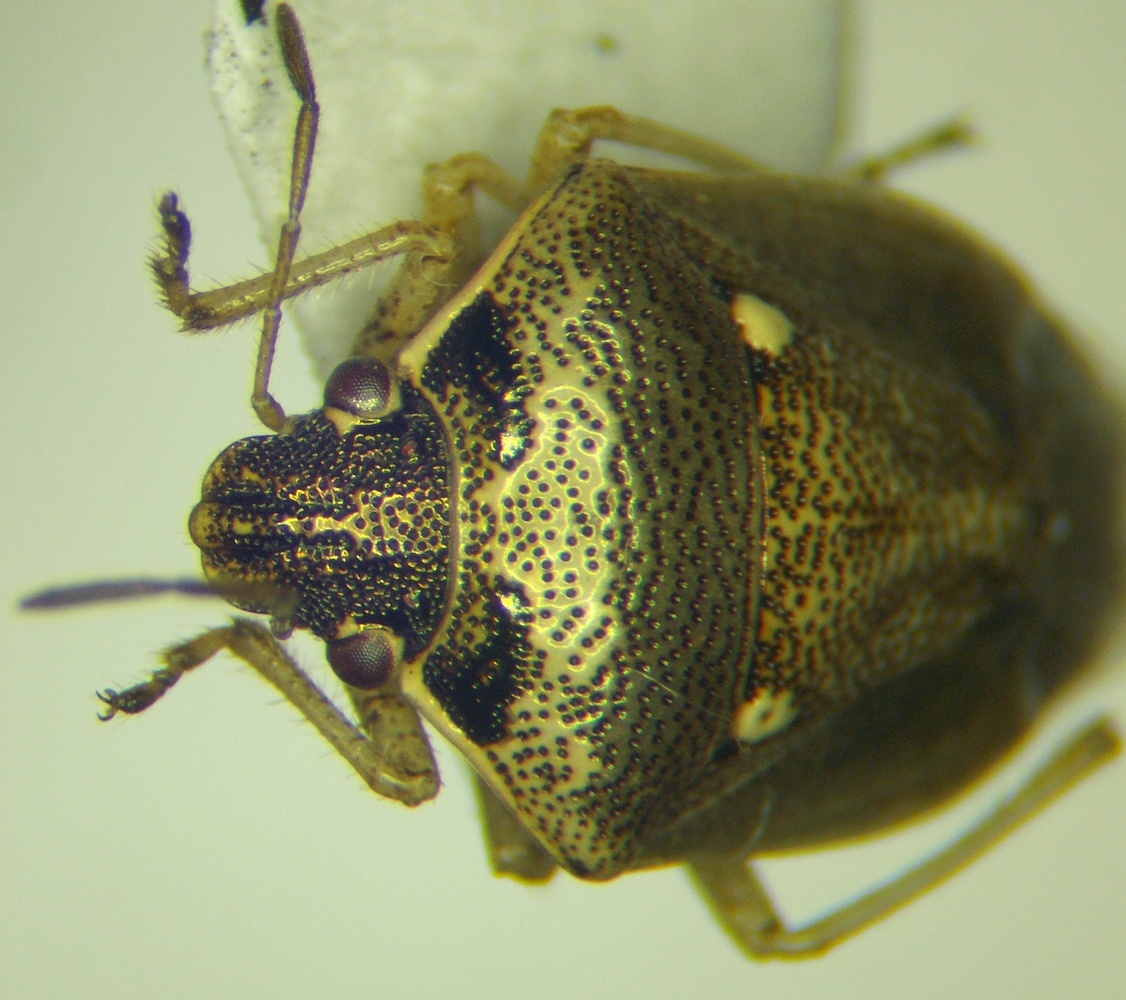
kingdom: Animalia
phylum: Arthropoda
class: Insecta
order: Hemiptera
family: Pentatomidae
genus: Eysarcoris
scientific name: Eysarcoris ventralis
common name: White-spotted stink bug
